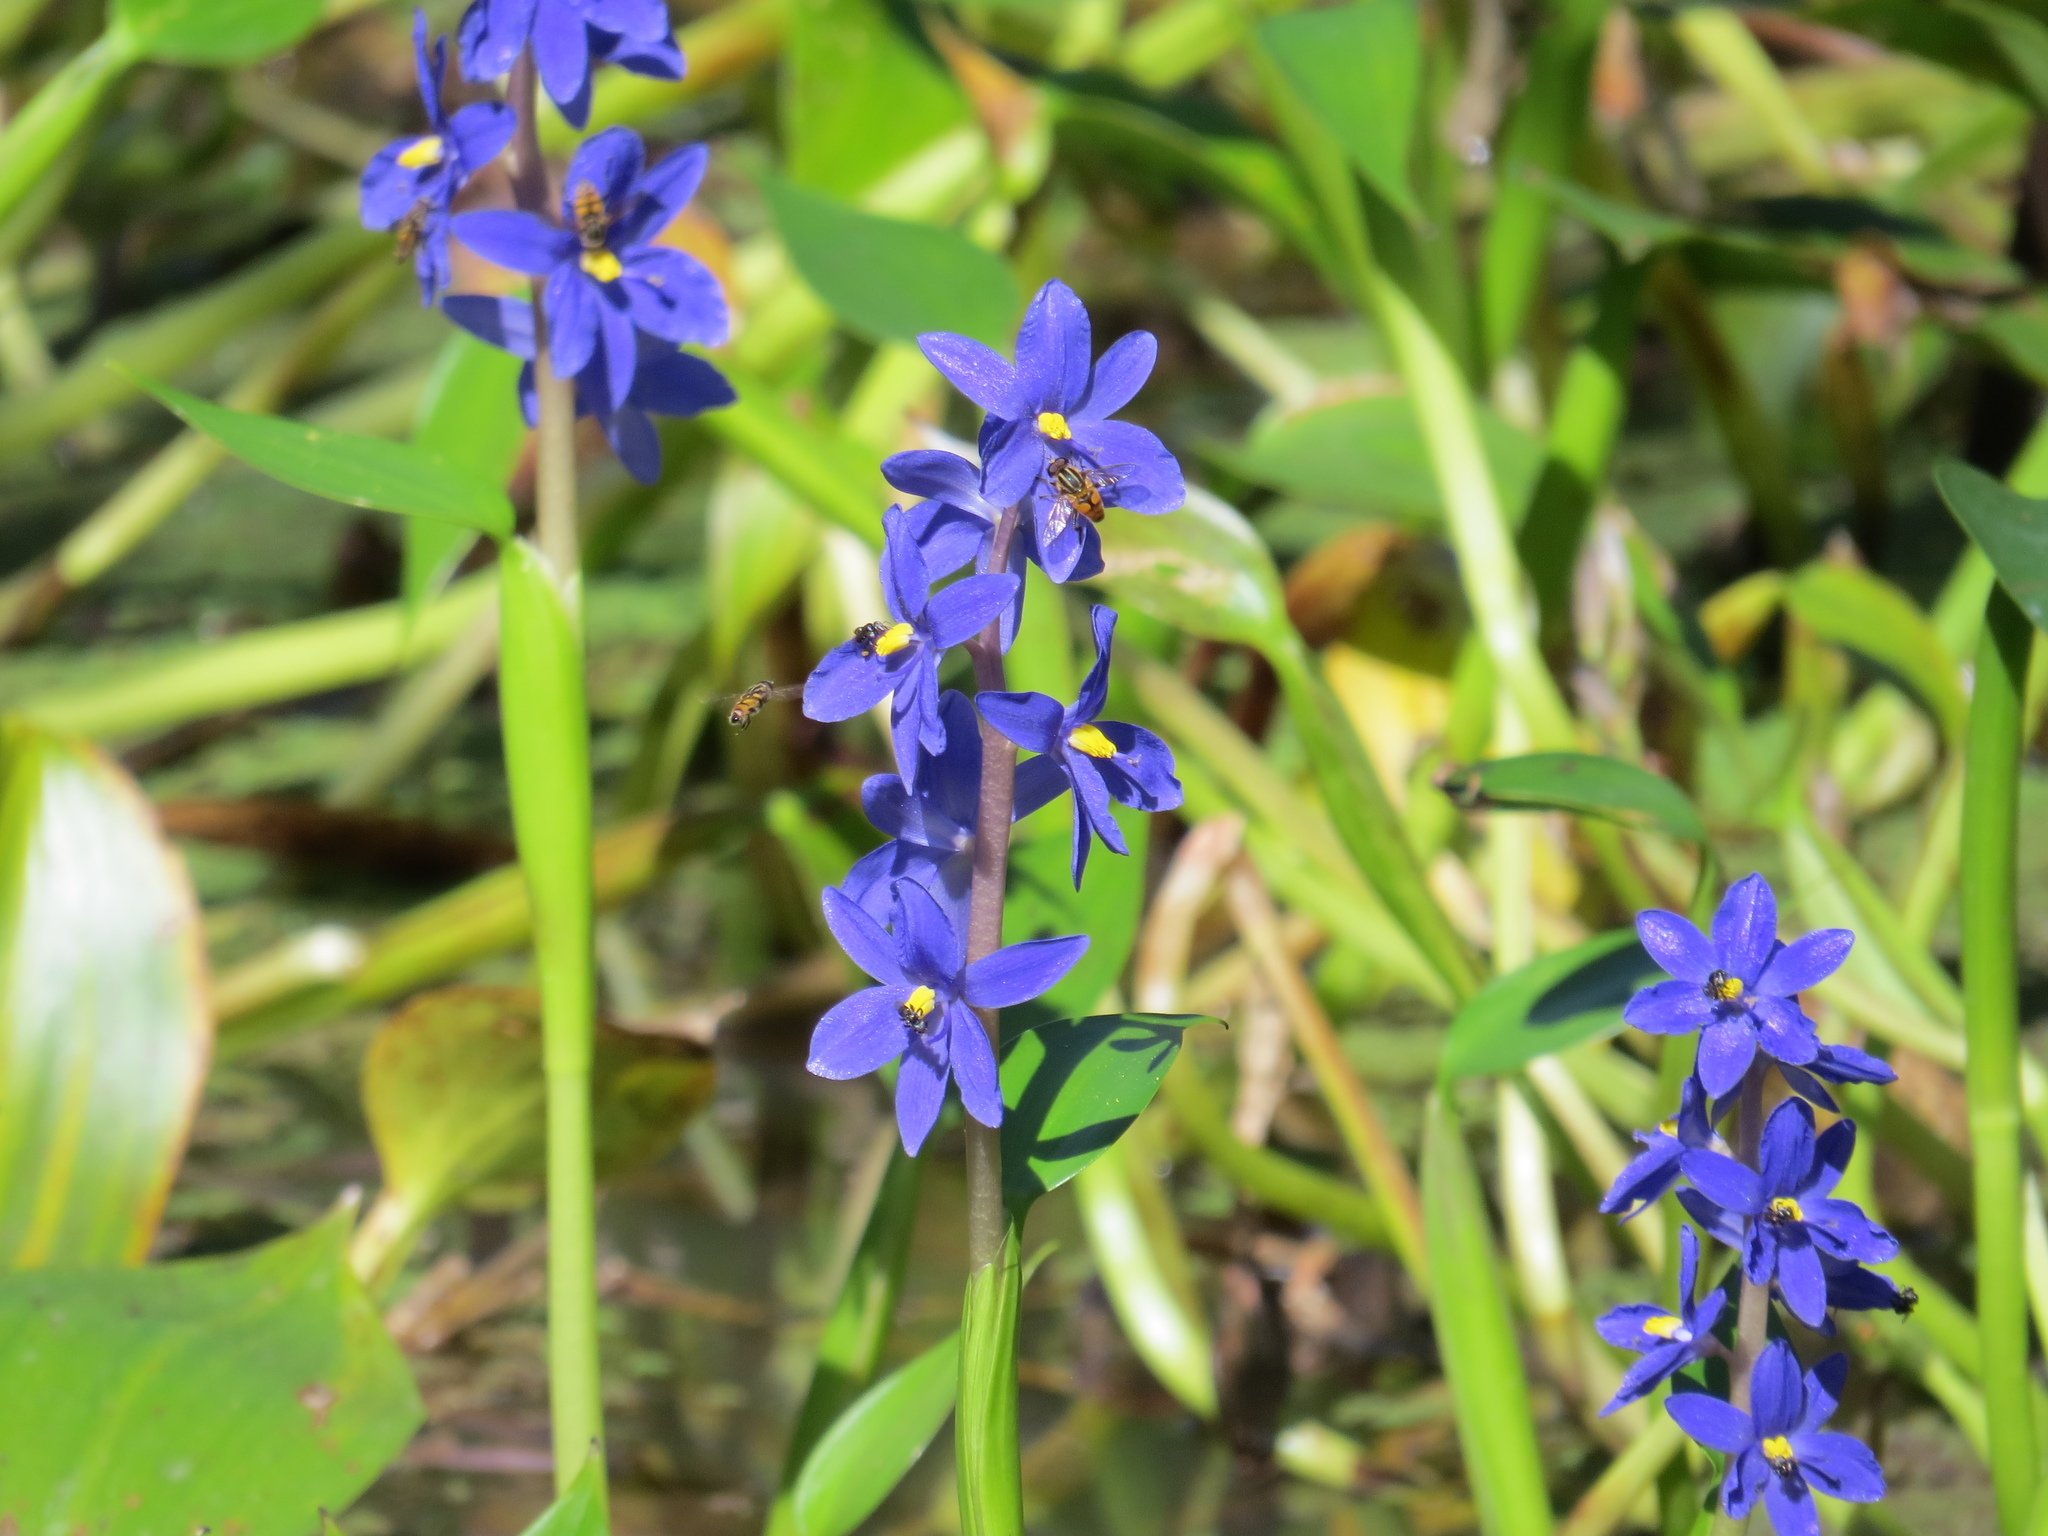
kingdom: Plantae
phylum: Tracheophyta
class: Liliopsida
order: Commelinales
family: Pontederiaceae
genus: Pontederia
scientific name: Pontederia australasica
